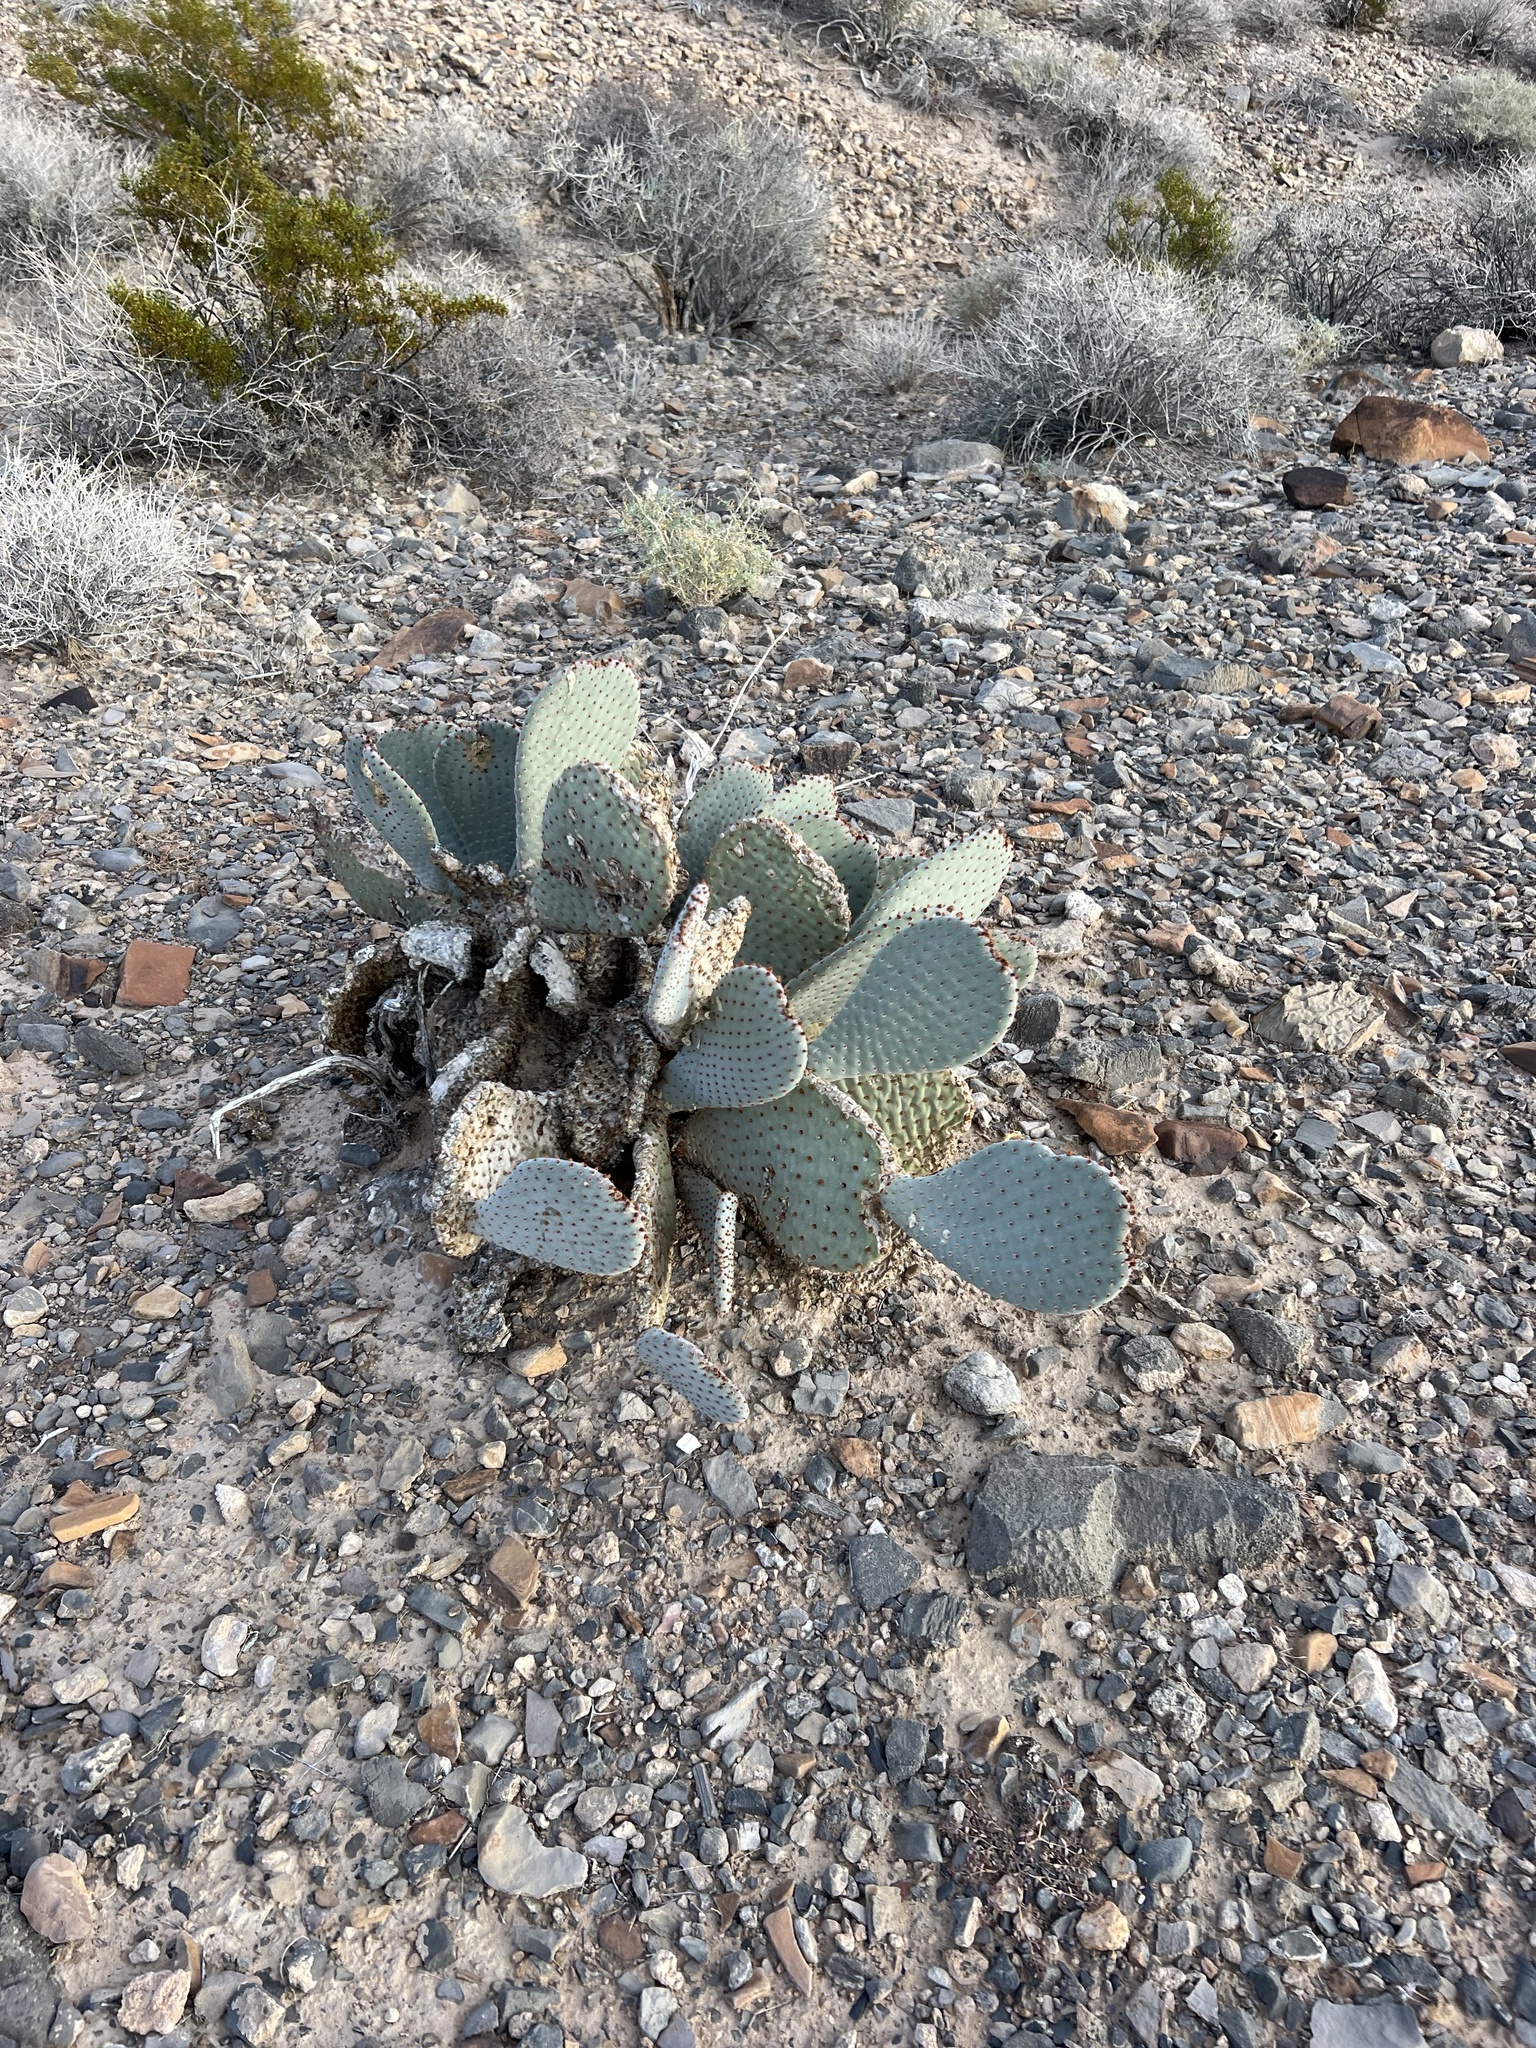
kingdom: Plantae
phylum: Tracheophyta
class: Magnoliopsida
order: Caryophyllales
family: Cactaceae
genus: Opuntia
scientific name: Opuntia basilaris
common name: Beavertail prickly-pear
